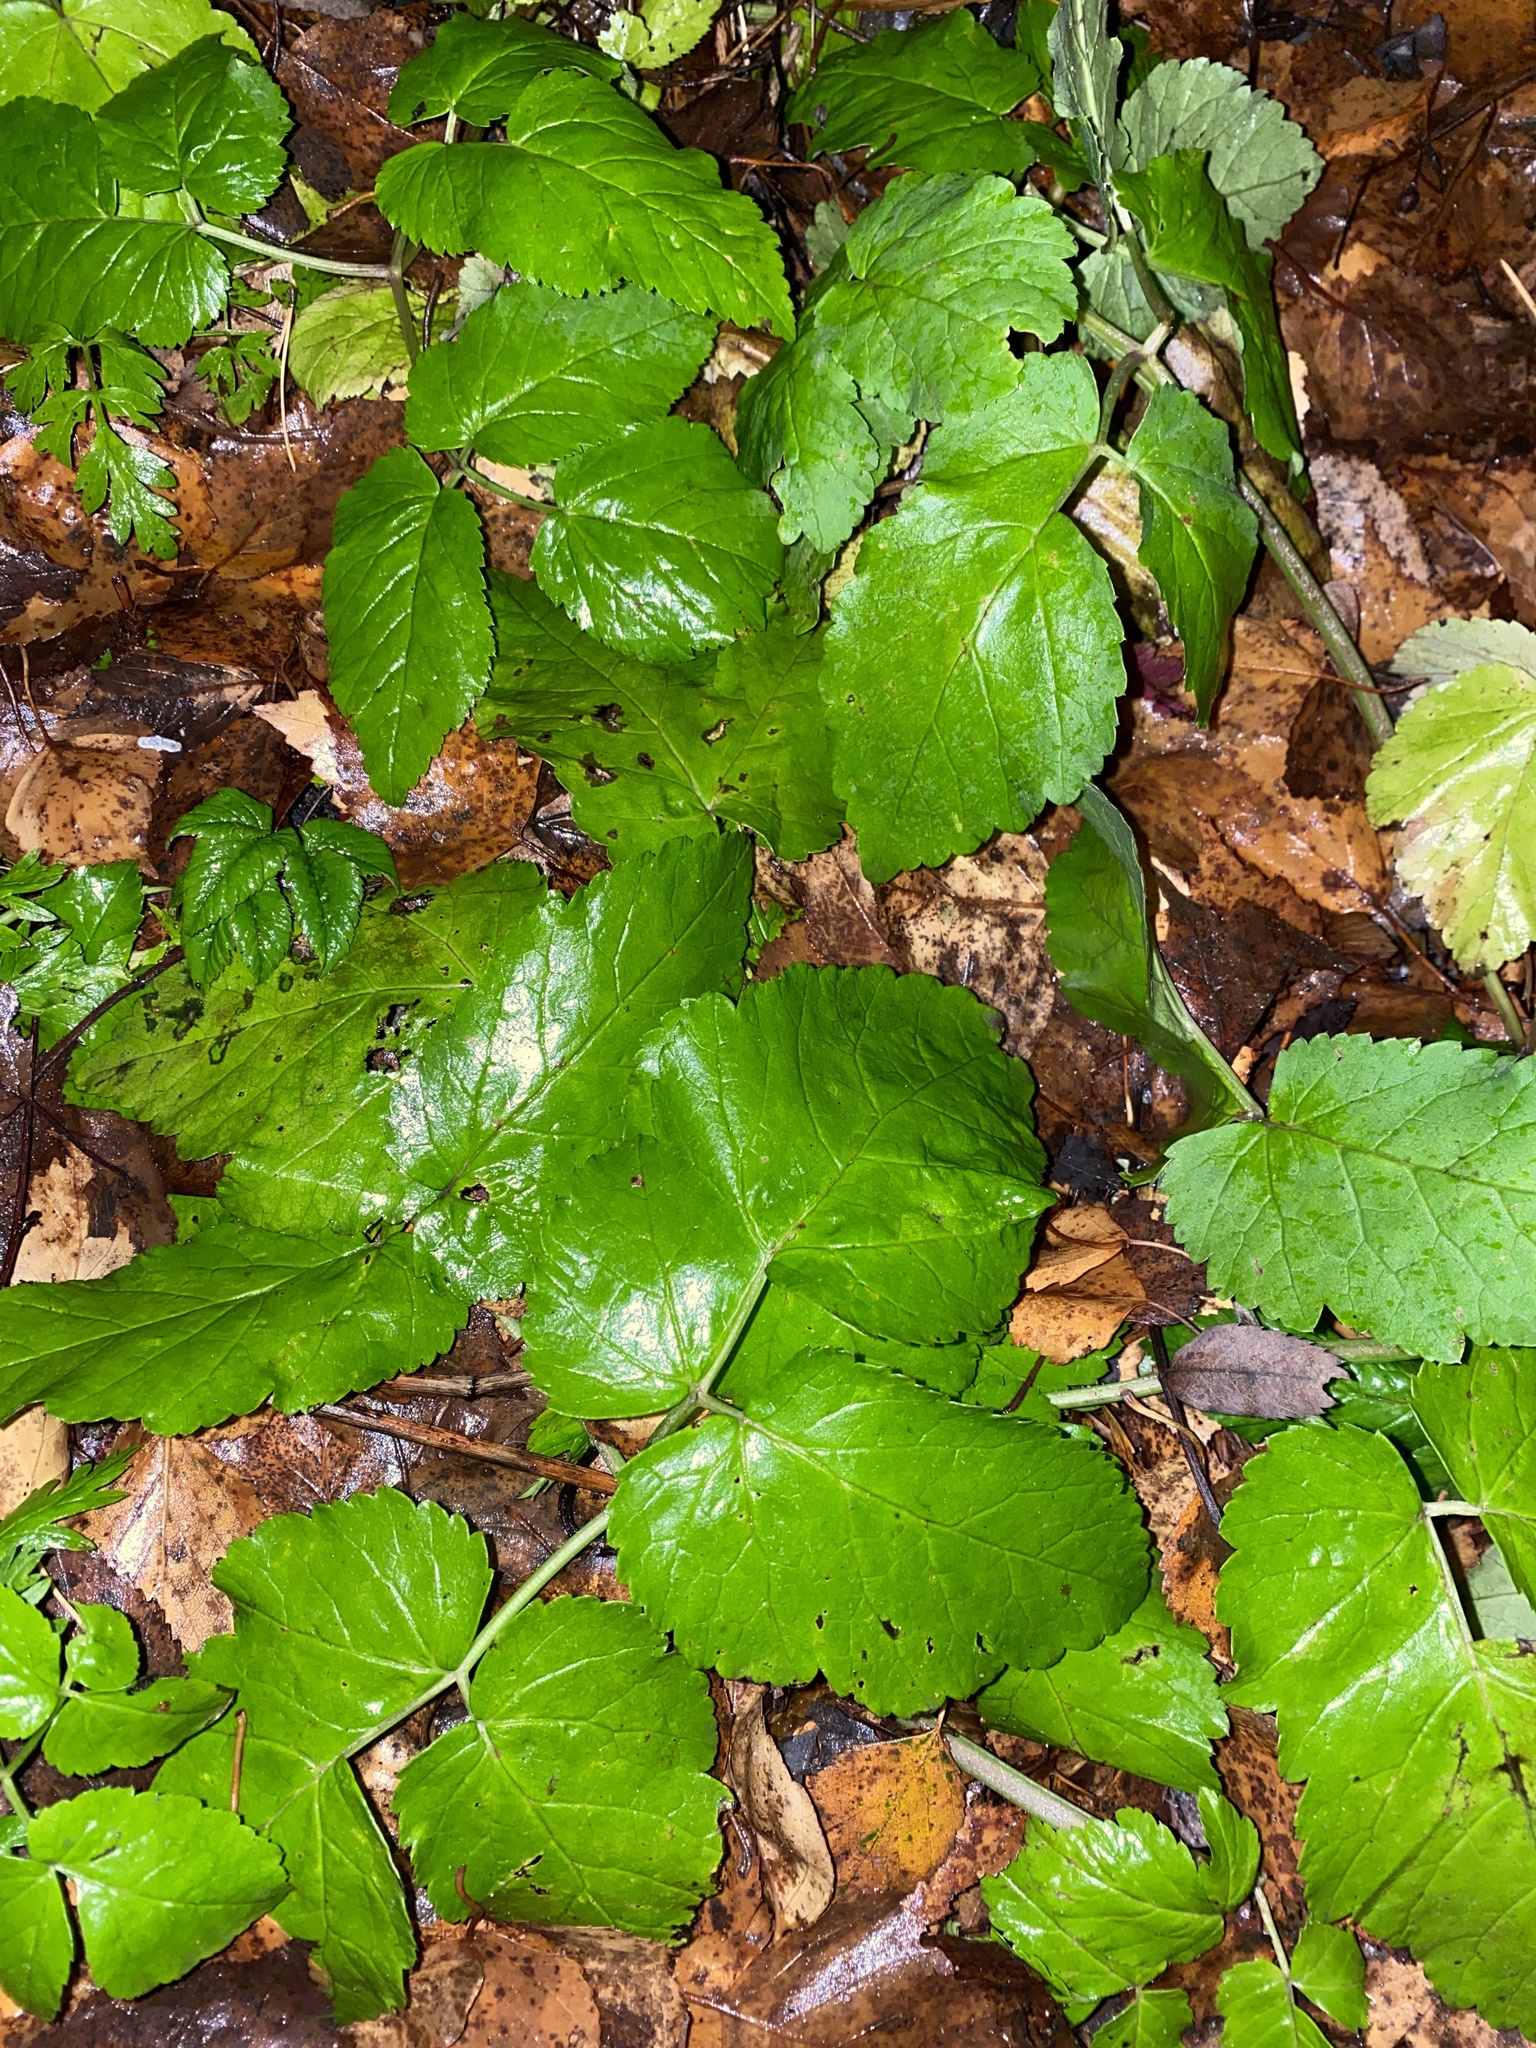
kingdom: Plantae
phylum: Tracheophyta
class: Magnoliopsida
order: Apiales
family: Apiaceae
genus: Aegopodium
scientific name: Aegopodium podagraria
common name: Ground-elder
